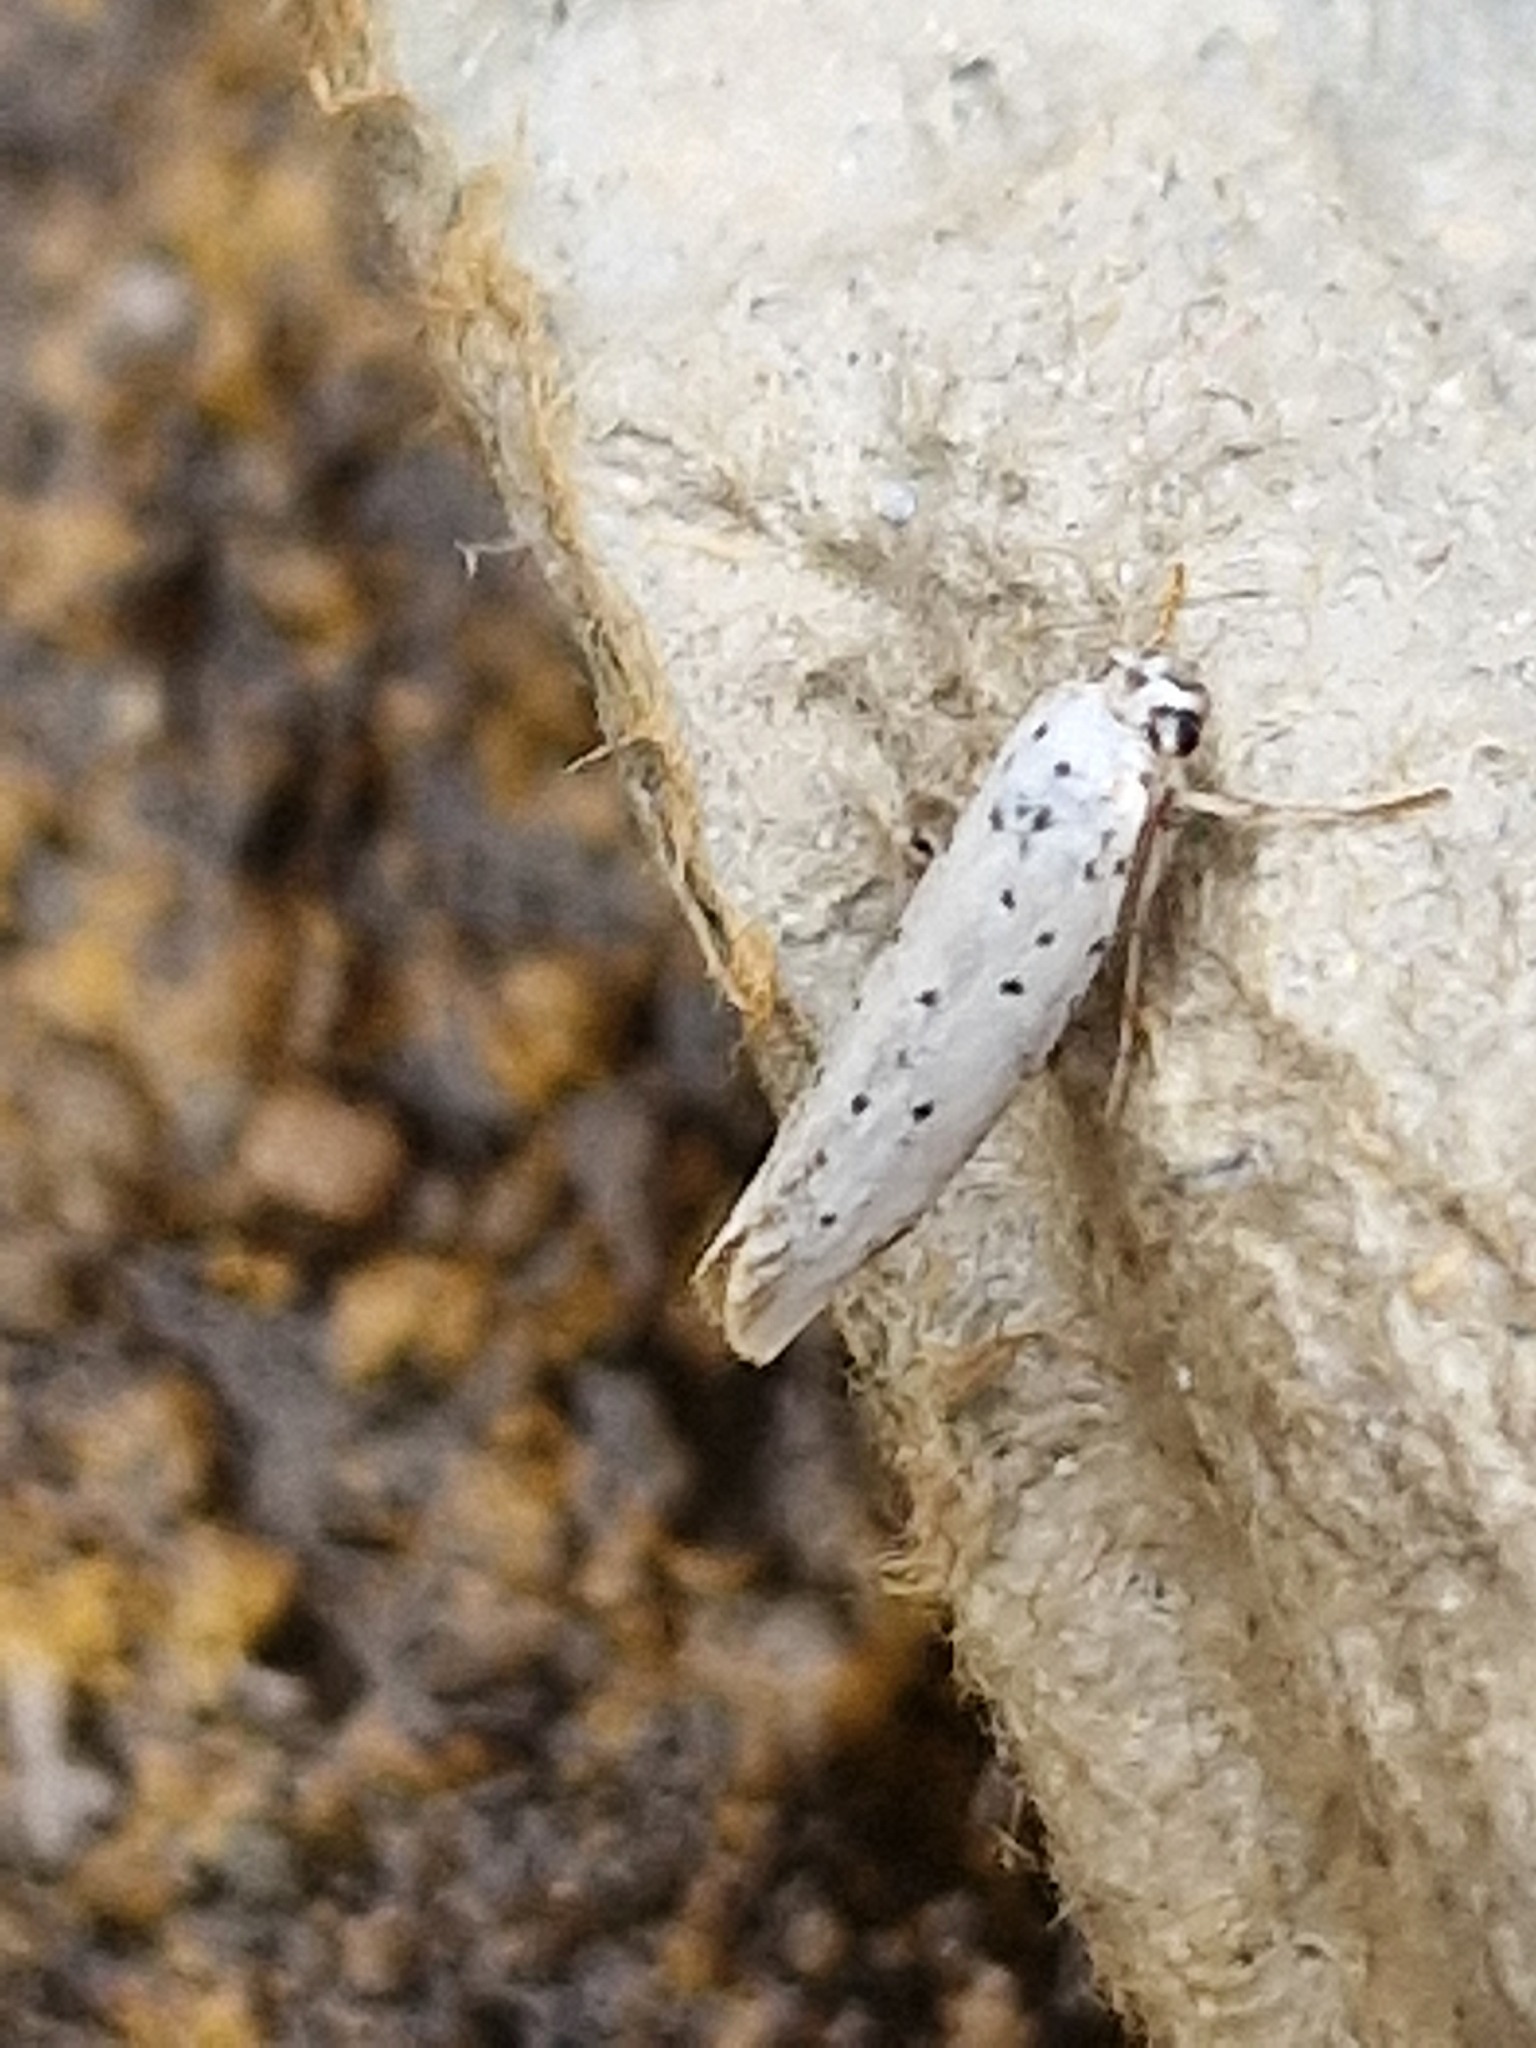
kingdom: Animalia
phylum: Arthropoda
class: Insecta
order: Lepidoptera
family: Yponomeutidae
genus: Yponomeuta
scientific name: Yponomeuta
